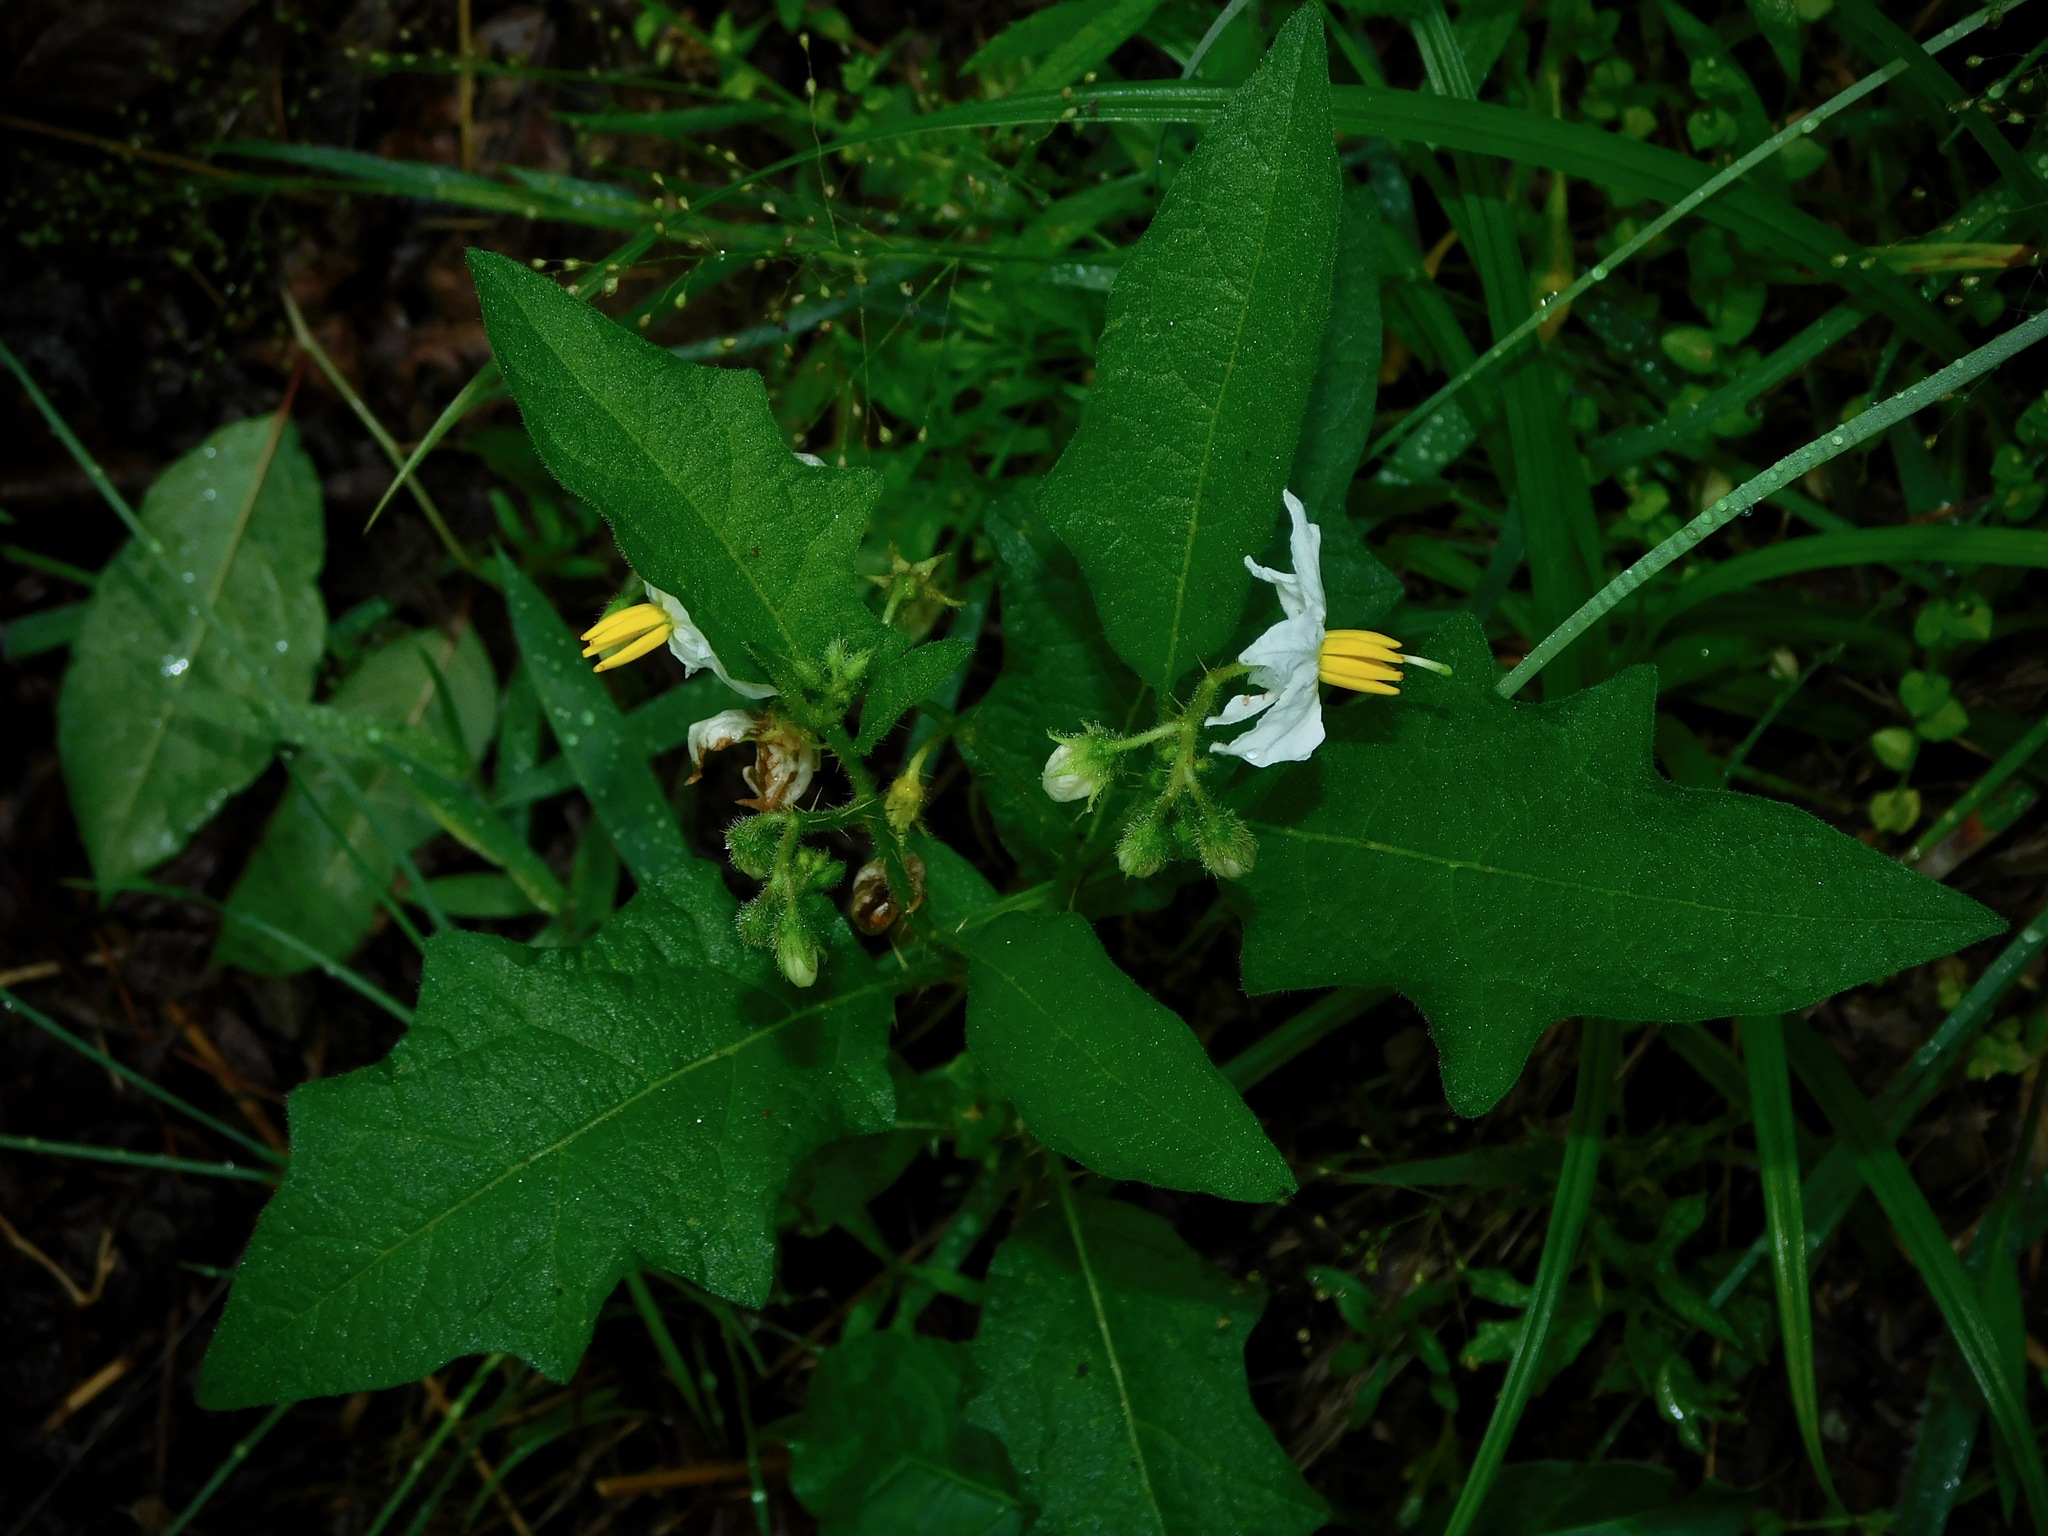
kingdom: Plantae
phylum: Tracheophyta
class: Magnoliopsida
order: Solanales
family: Solanaceae
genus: Solanum
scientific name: Solanum carolinense
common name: Horse-nettle
